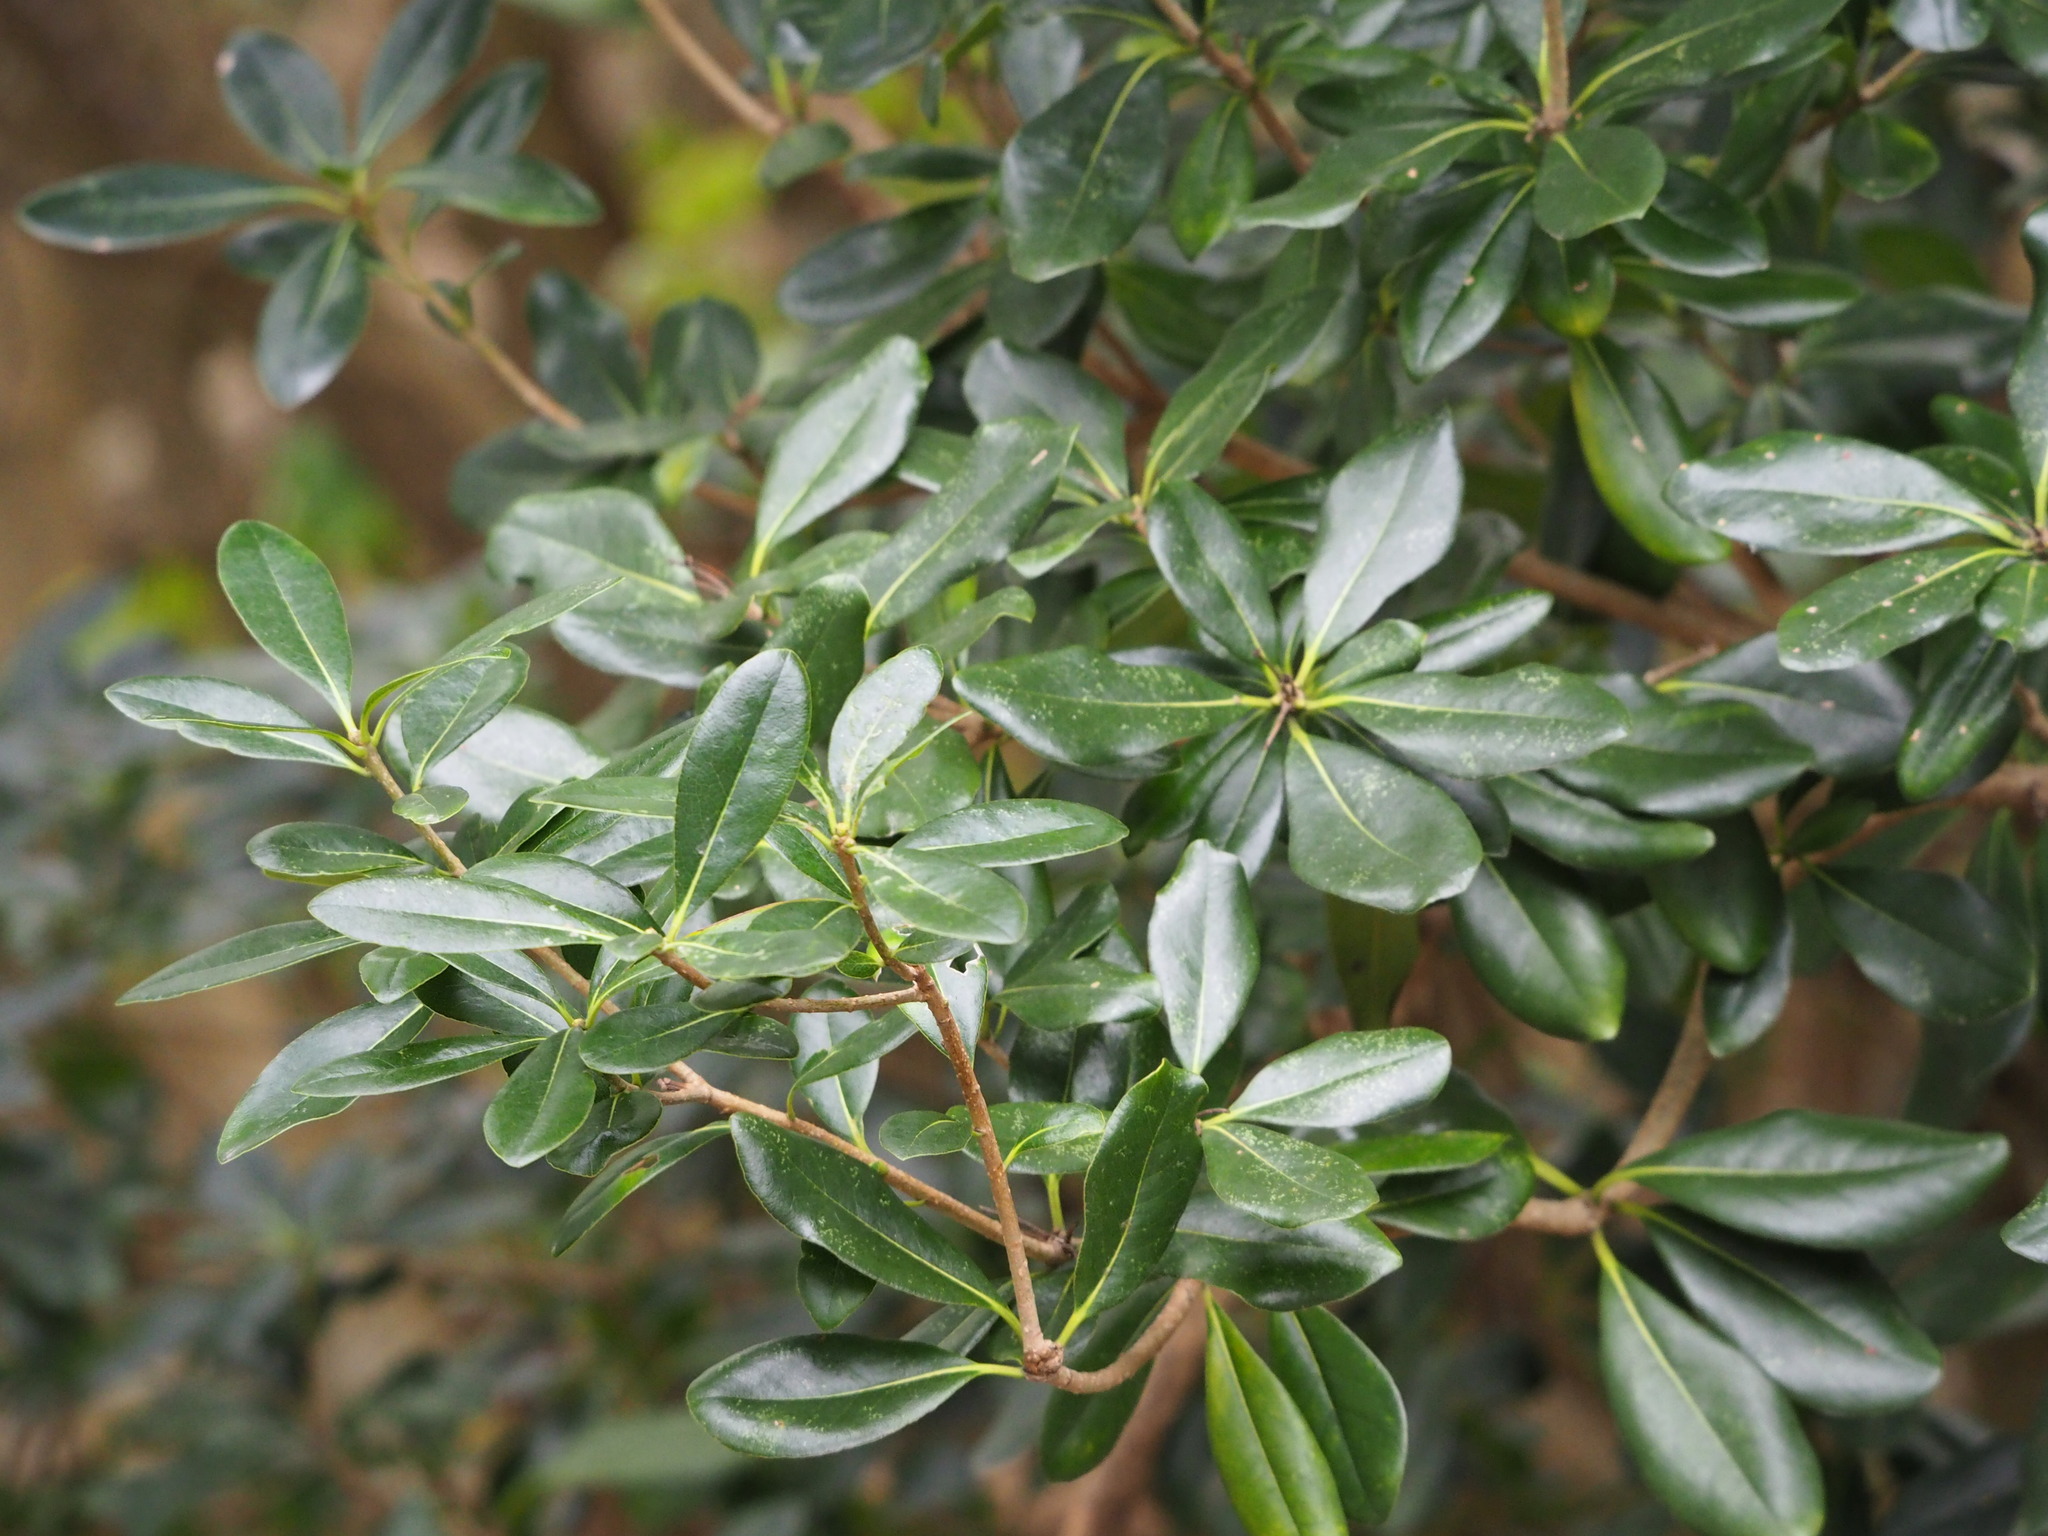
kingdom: Plantae
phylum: Tracheophyta
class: Magnoliopsida
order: Apiales
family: Pittosporaceae
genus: Pittosporum
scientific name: Pittosporum tobira
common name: Japanese cheesewood
